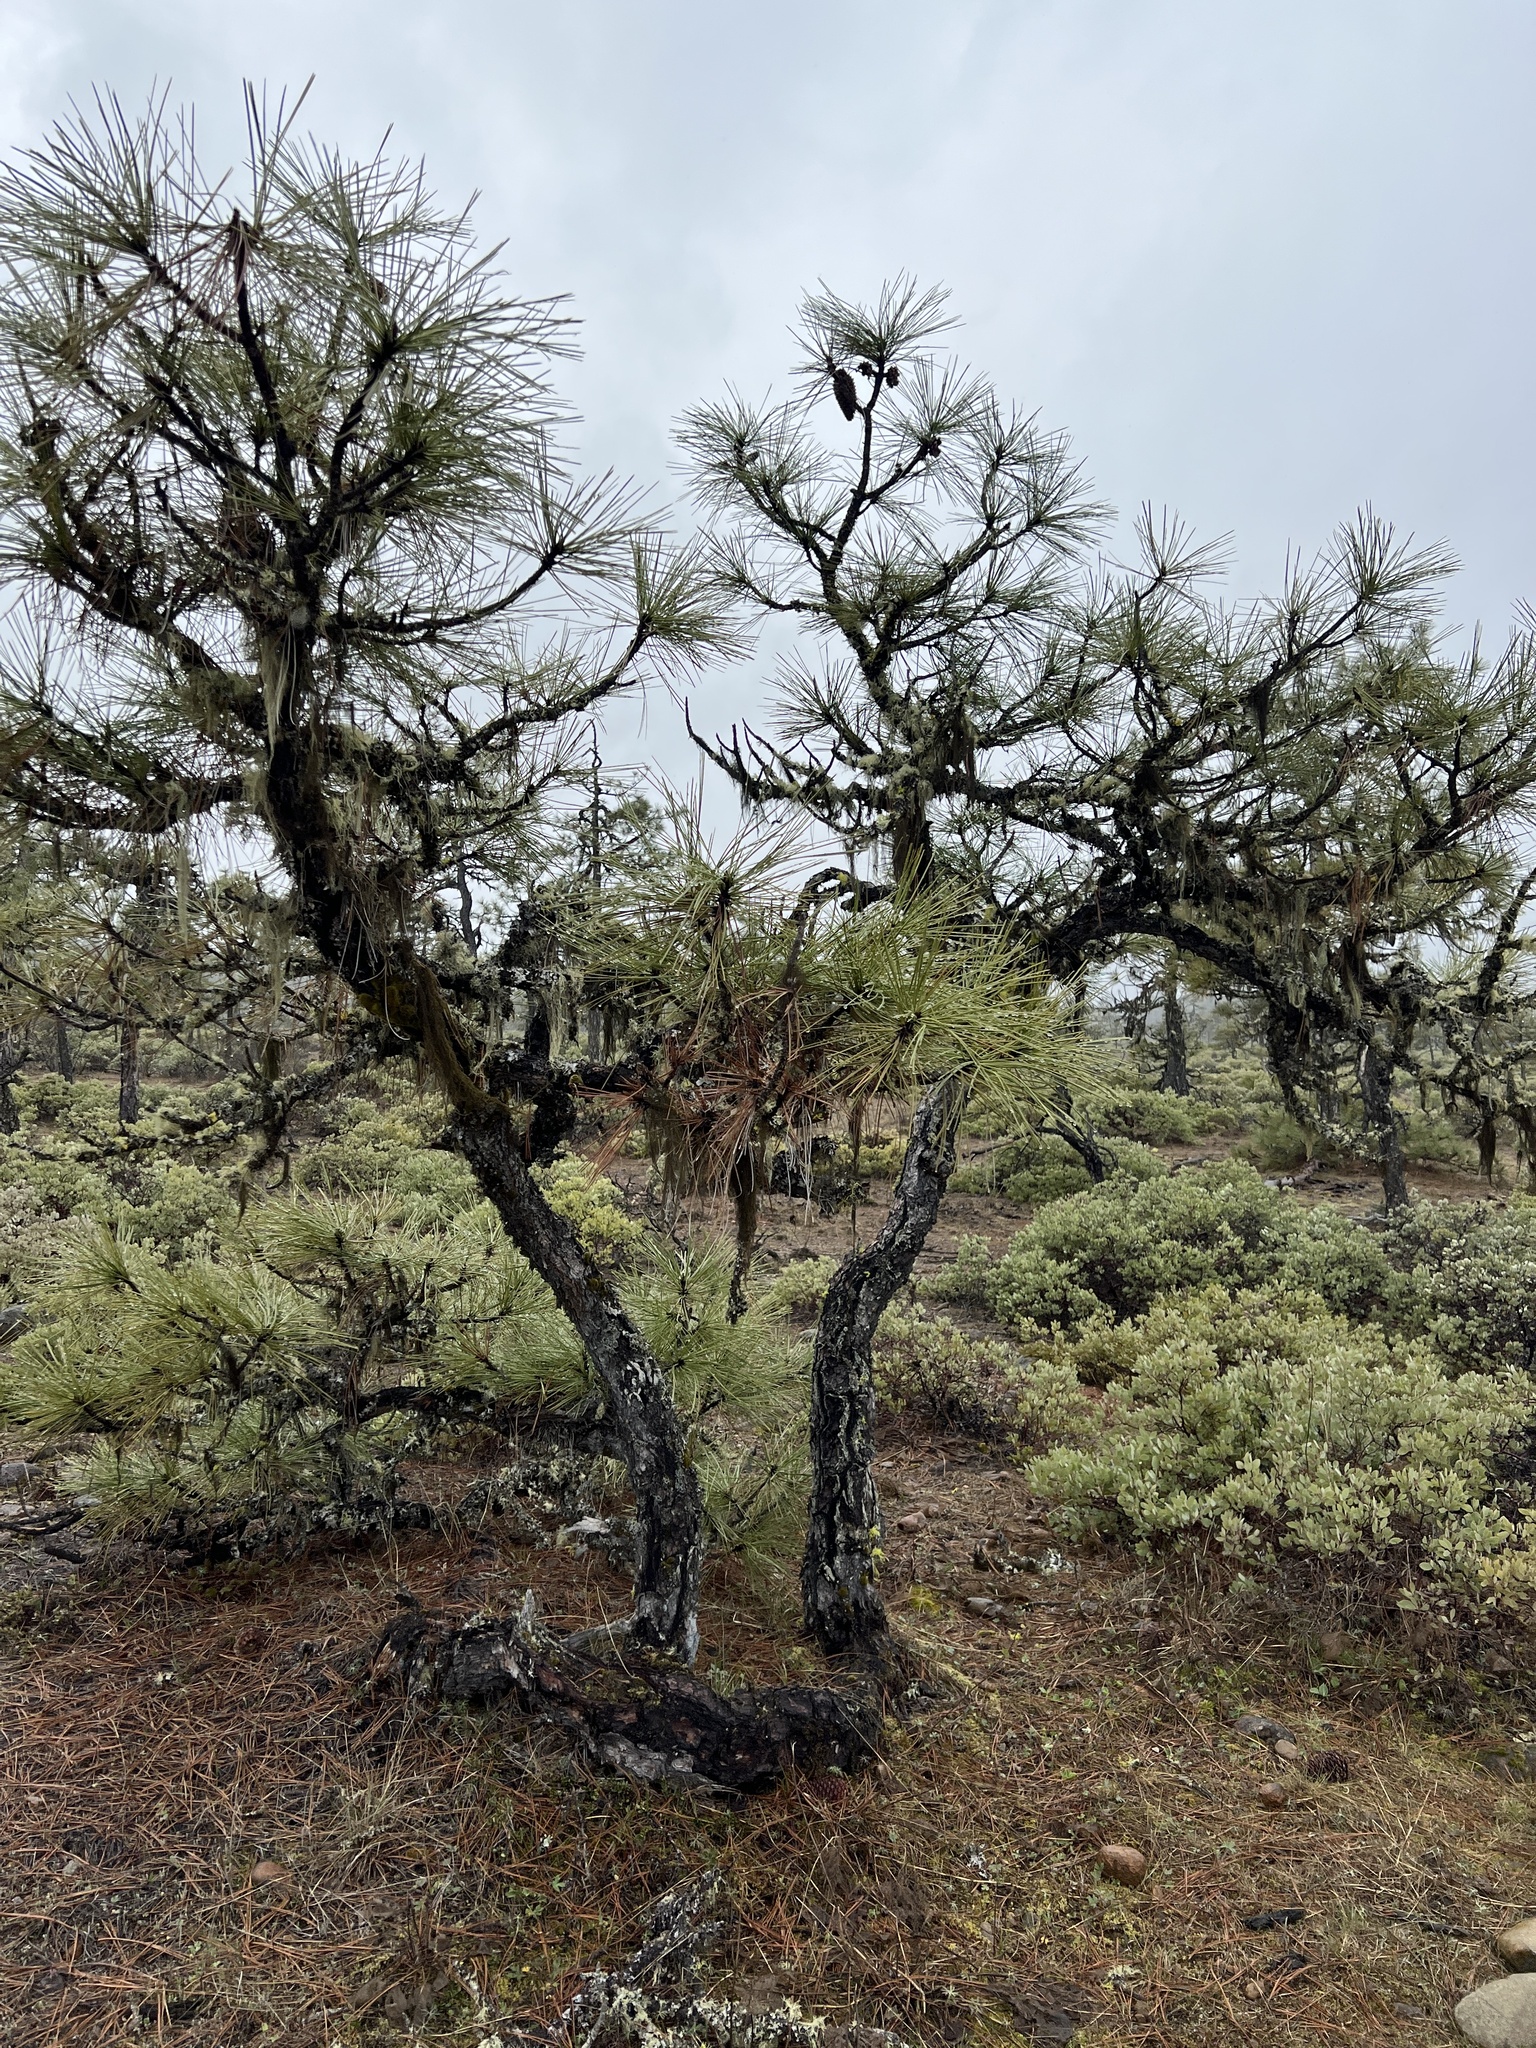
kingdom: Plantae
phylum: Tracheophyta
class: Pinopsida
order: Pinales
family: Pinaceae
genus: Pinus
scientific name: Pinus jeffreyi
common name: Jeffrey pine
